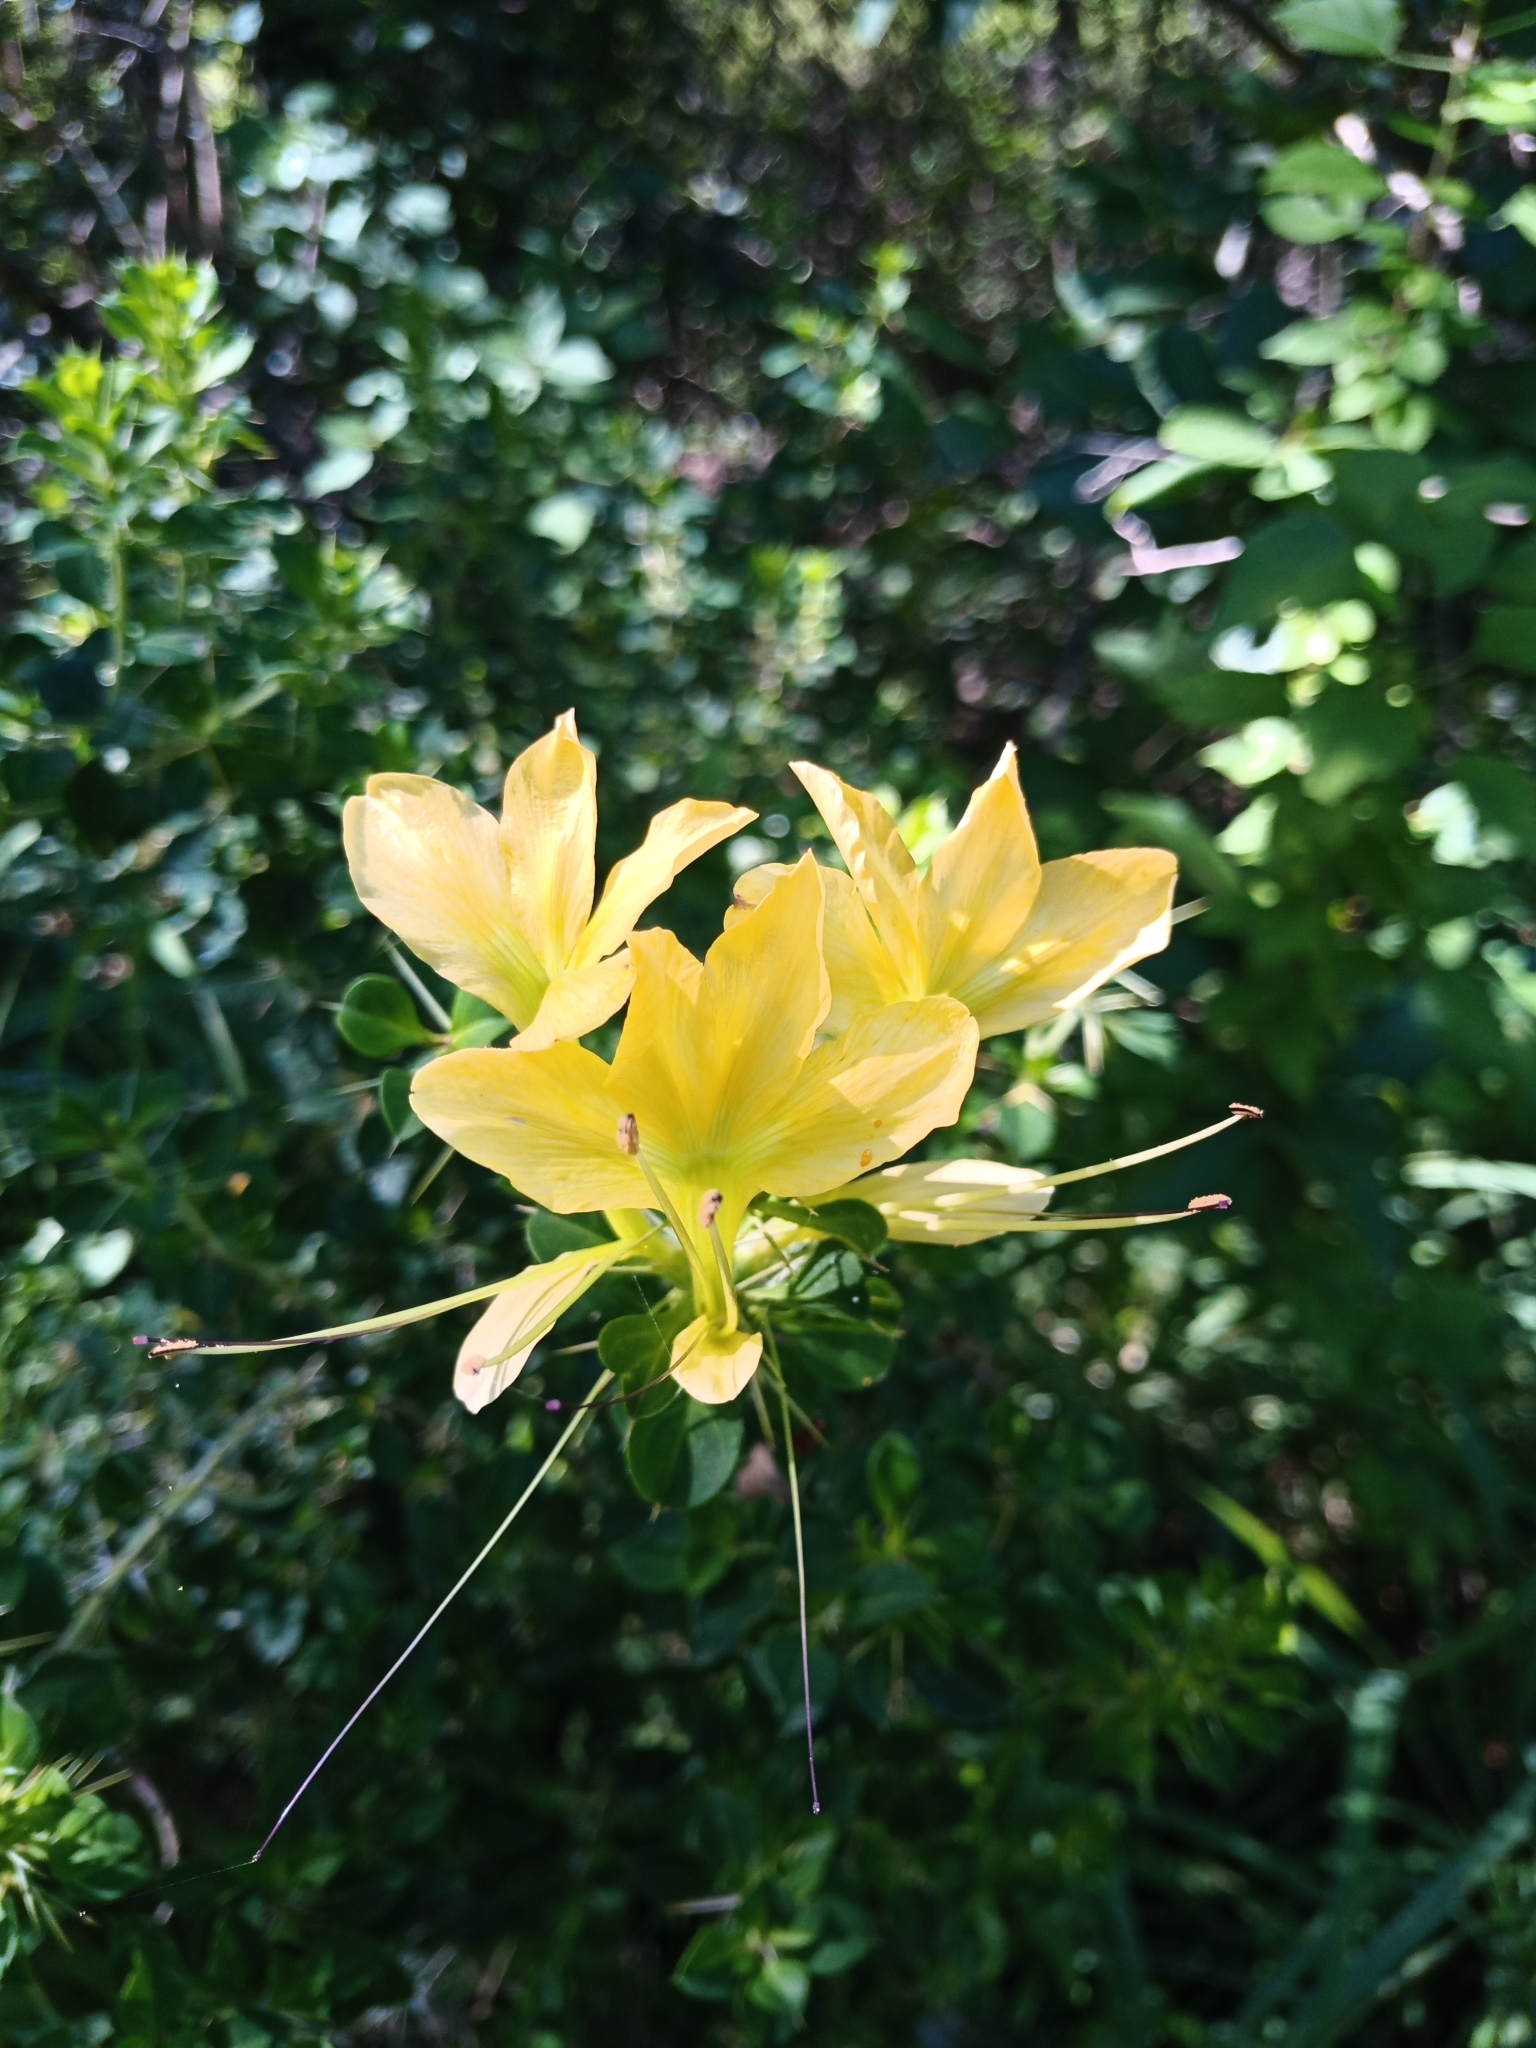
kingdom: Plantae
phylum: Tracheophyta
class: Magnoliopsida
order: Lamiales
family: Acanthaceae
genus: Barleria
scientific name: Barleria rotundifolia
